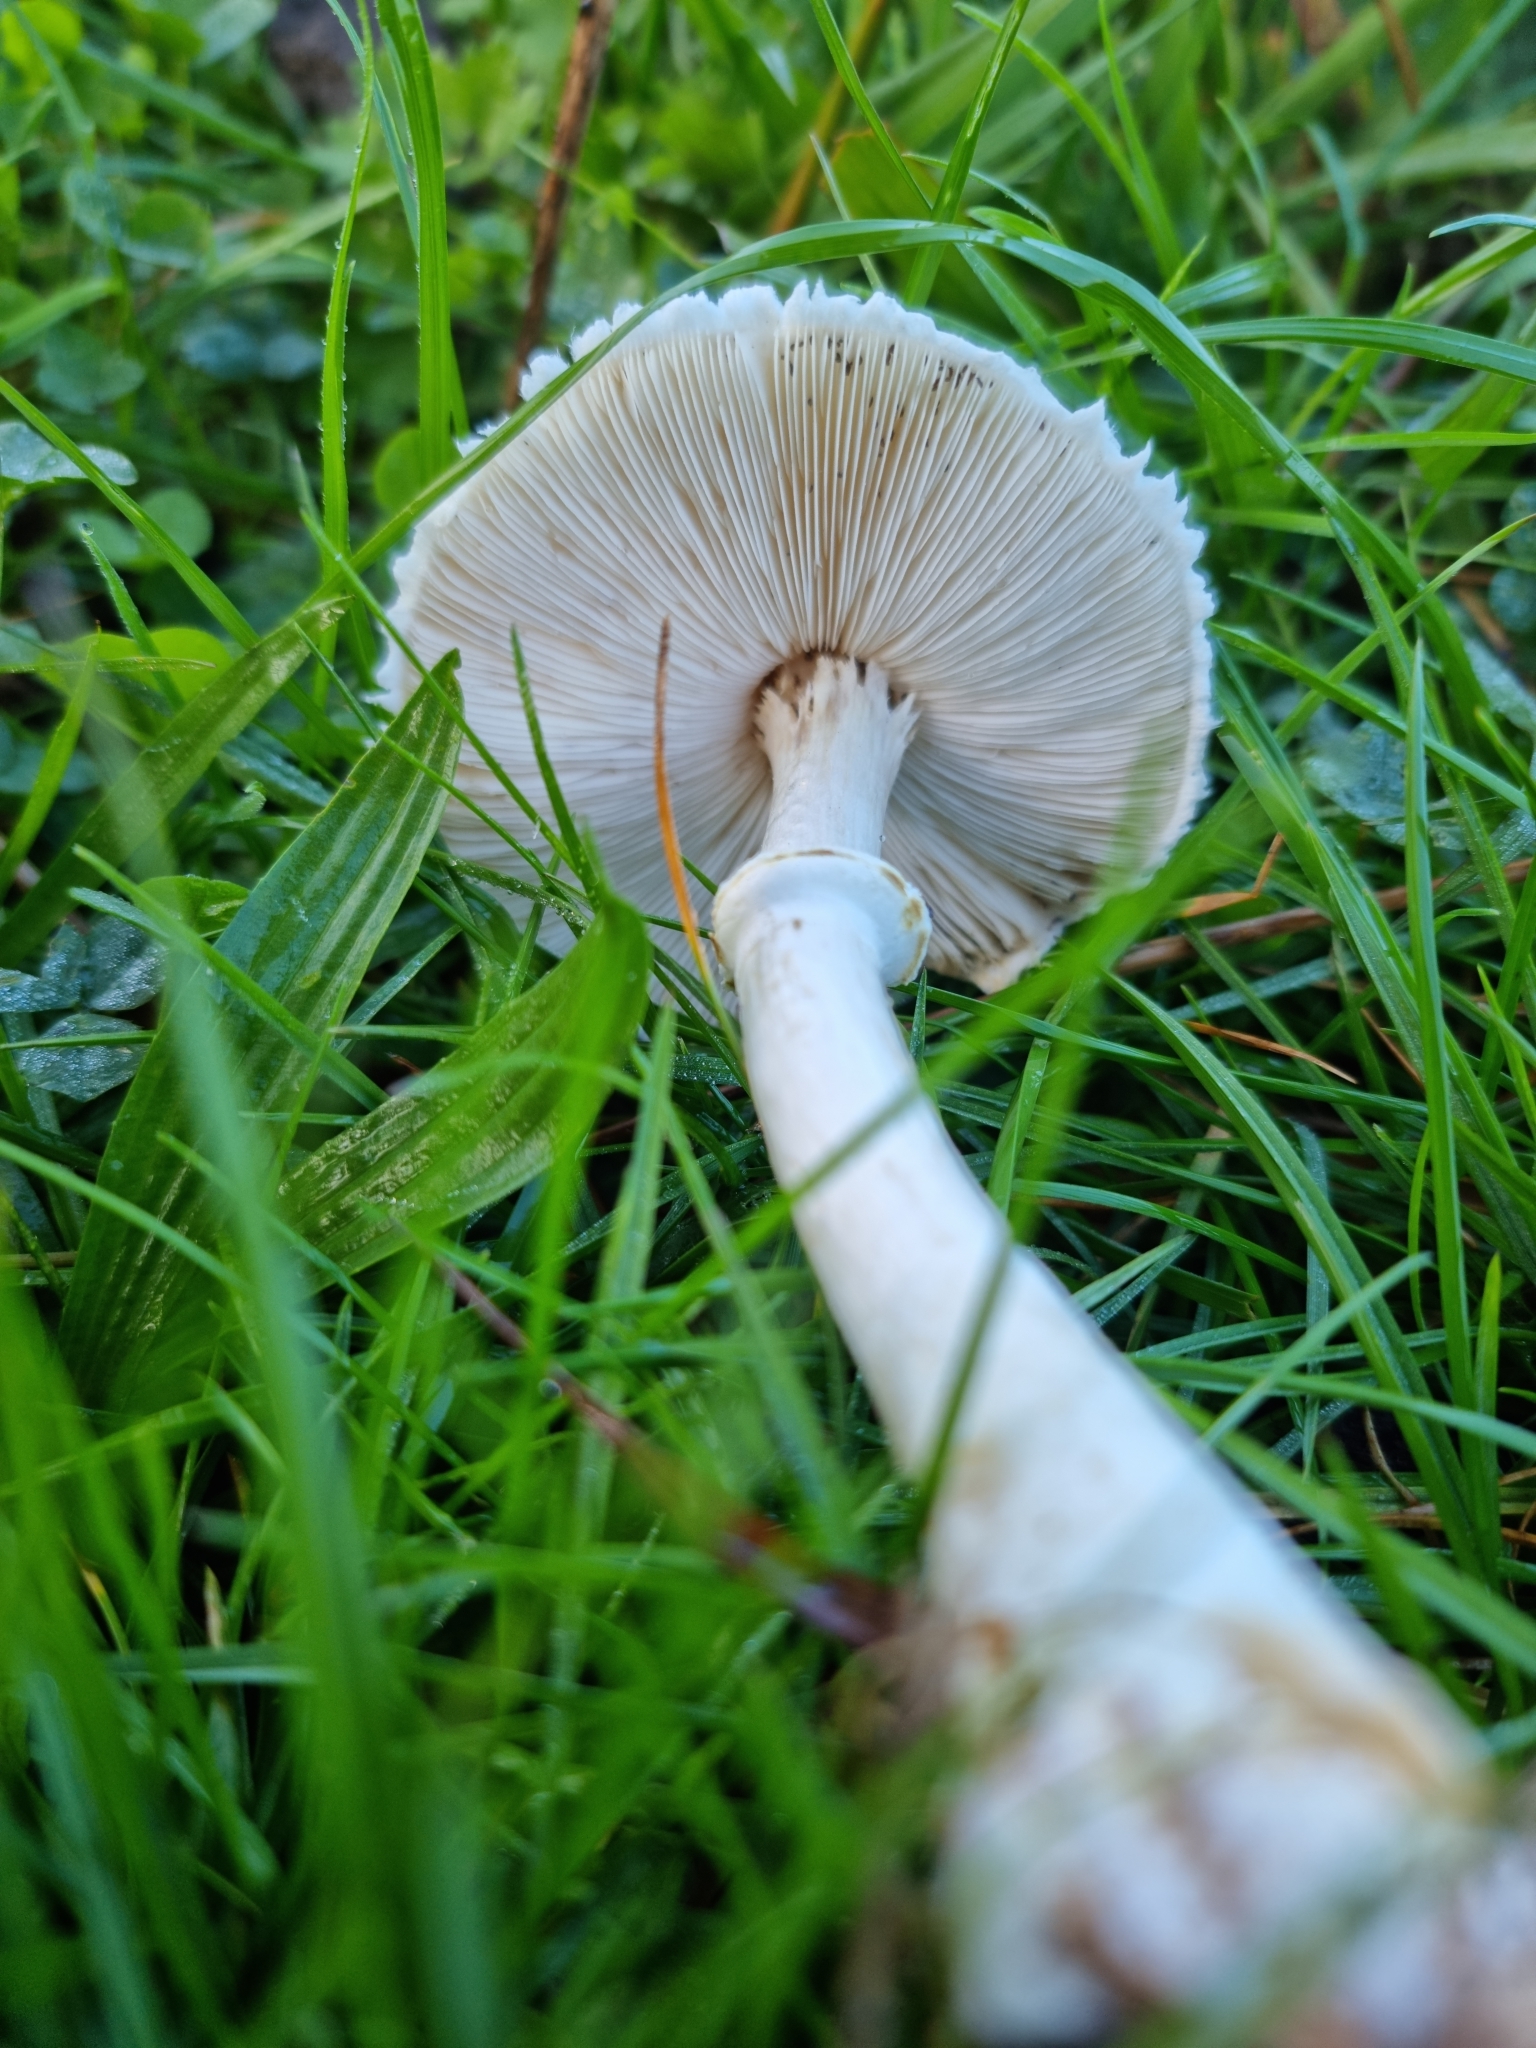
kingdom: Fungi
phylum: Basidiomycota
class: Agaricomycetes
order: Agaricales
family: Agaricaceae
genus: Leucoagaricus
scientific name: Leucoagaricus leucothites
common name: White dapperling
